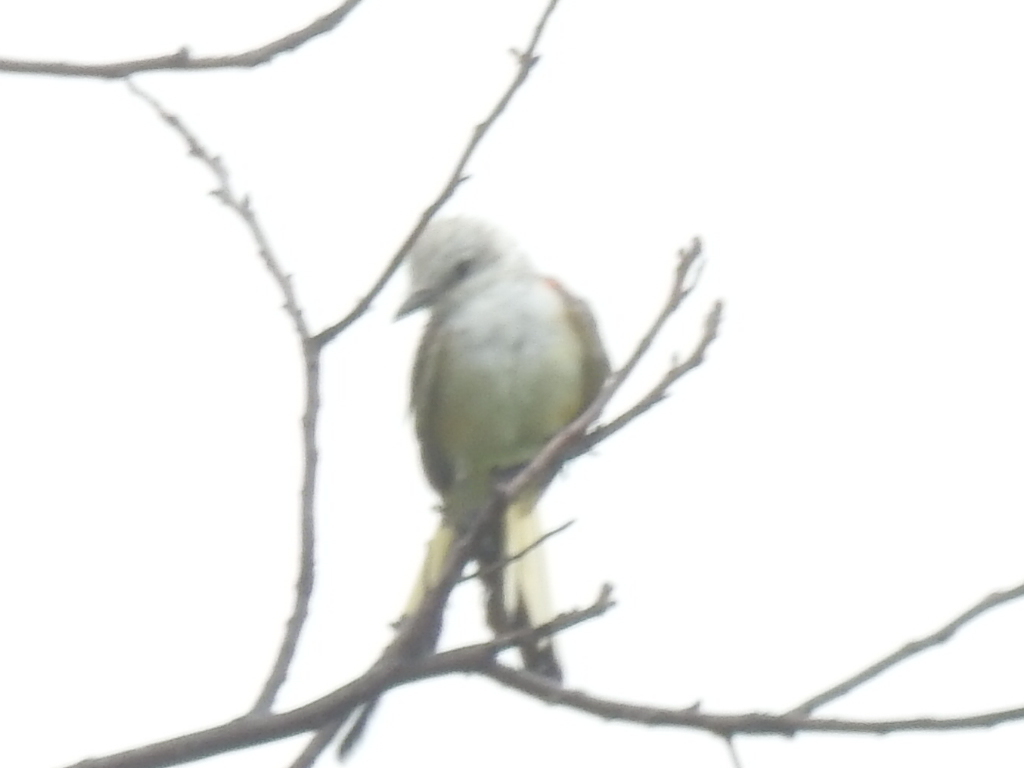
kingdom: Animalia
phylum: Chordata
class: Aves
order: Passeriformes
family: Tyrannidae
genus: Tyrannus
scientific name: Tyrannus forficatus
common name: Scissor-tailed flycatcher
